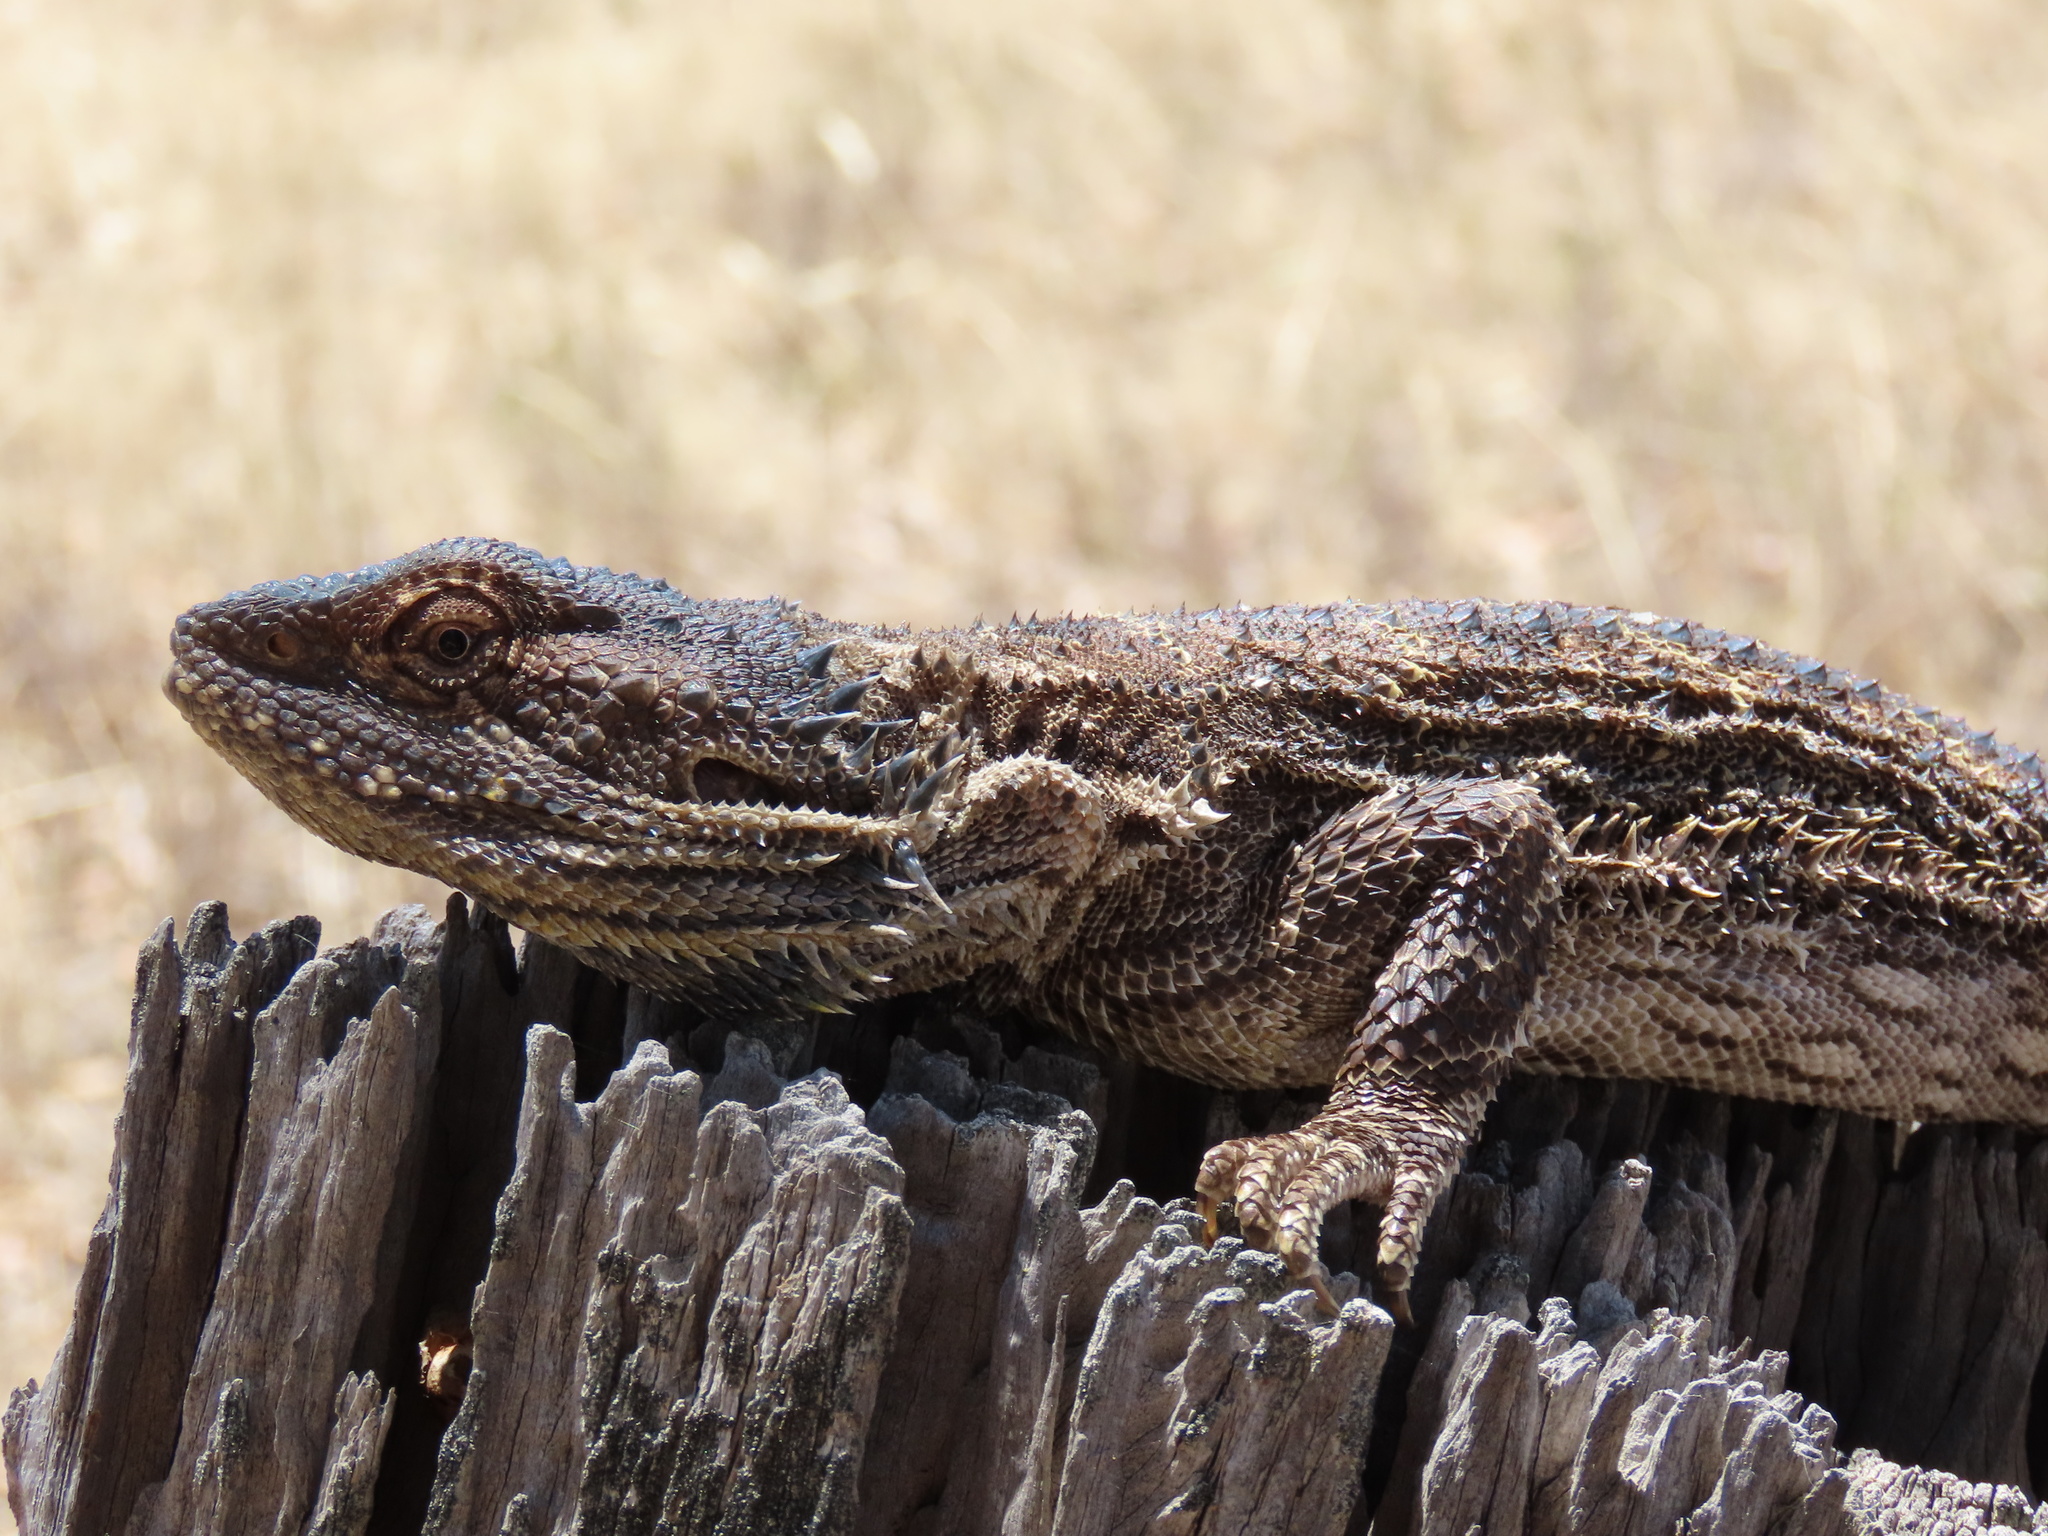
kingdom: Animalia
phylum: Chordata
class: Squamata
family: Agamidae
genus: Pogona
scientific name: Pogona barbata
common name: Bearded dragon
